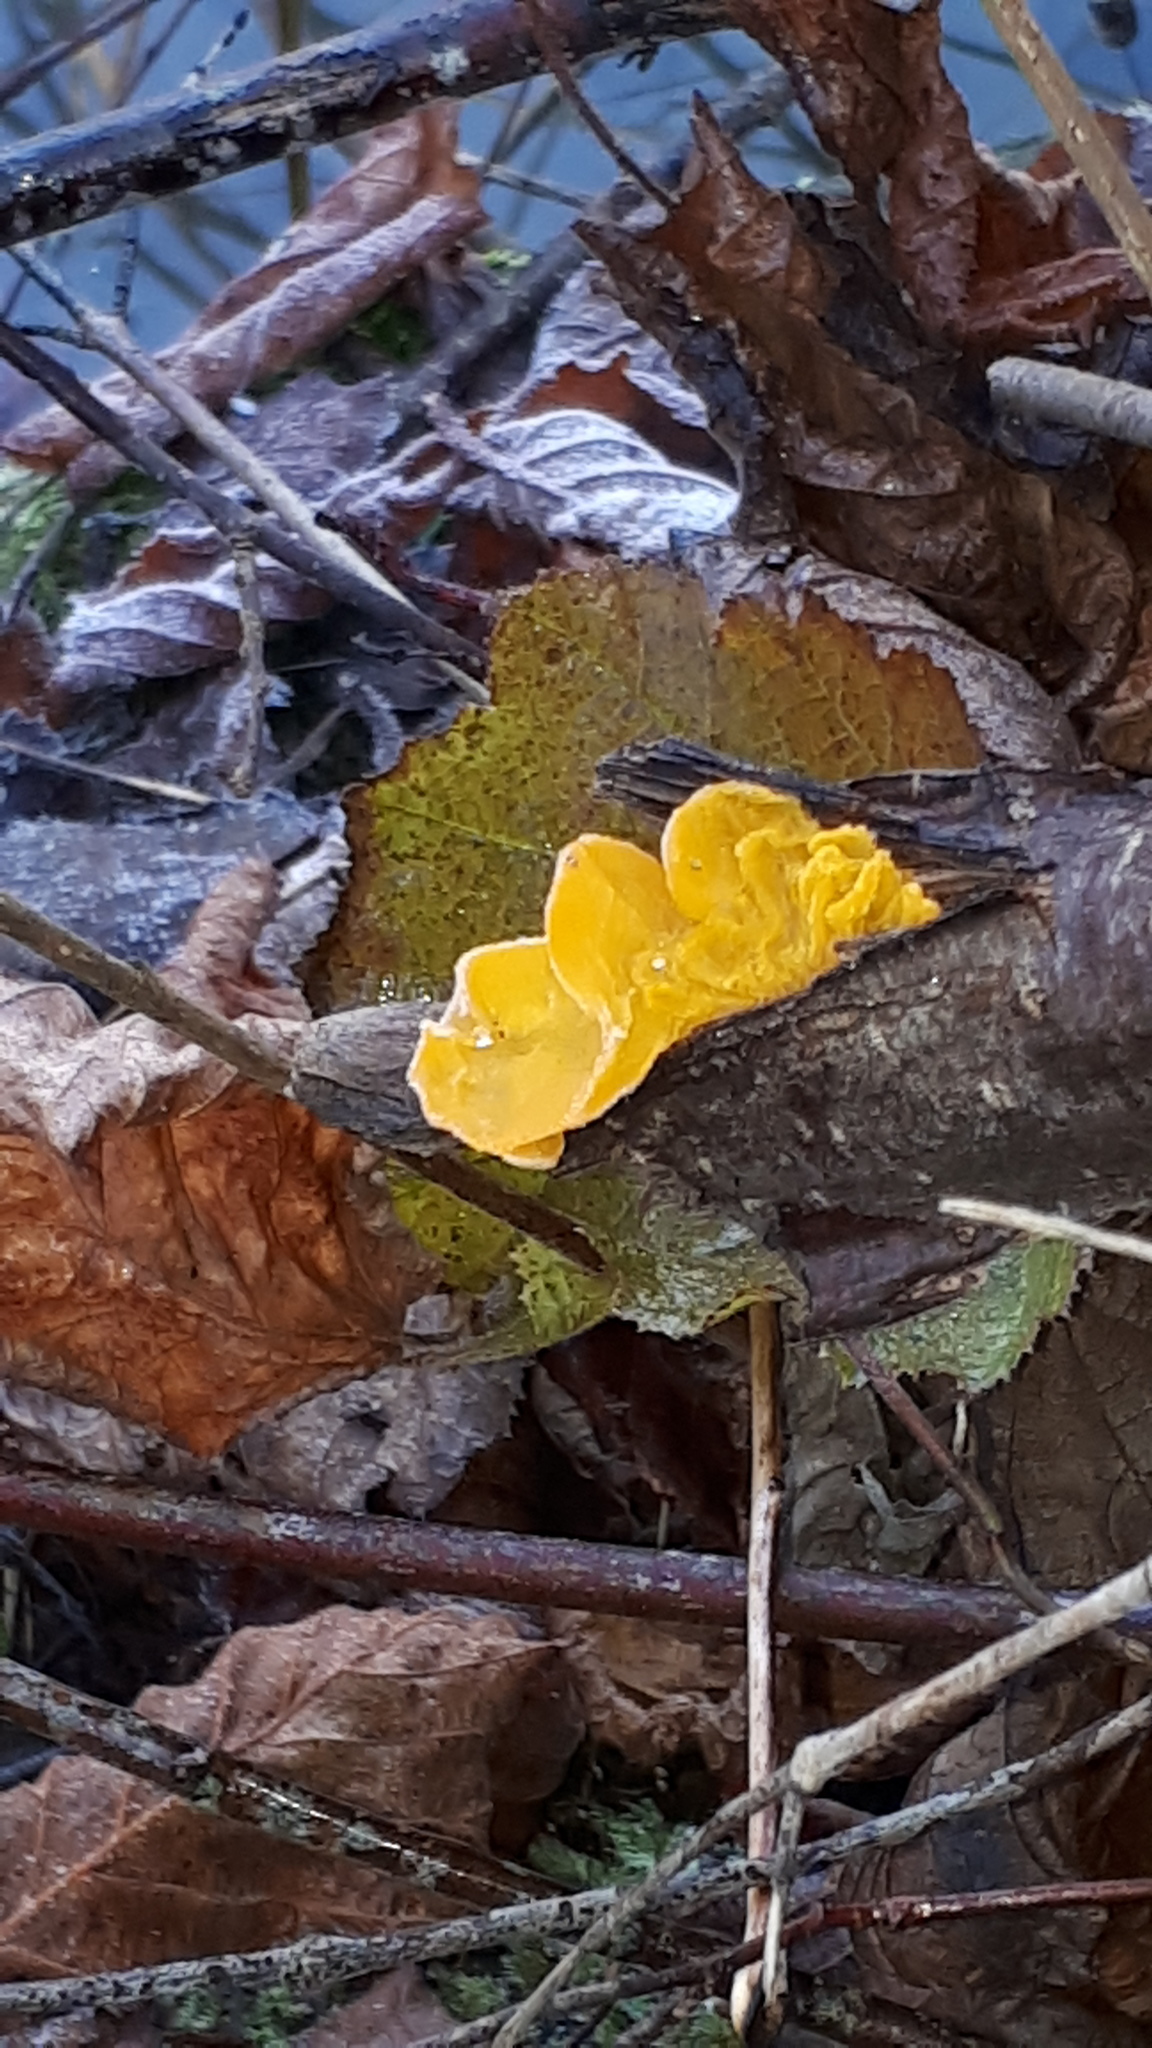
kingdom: Fungi
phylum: Basidiomycota
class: Tremellomycetes
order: Tremellales
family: Tremellaceae
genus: Tremella
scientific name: Tremella mesenterica
